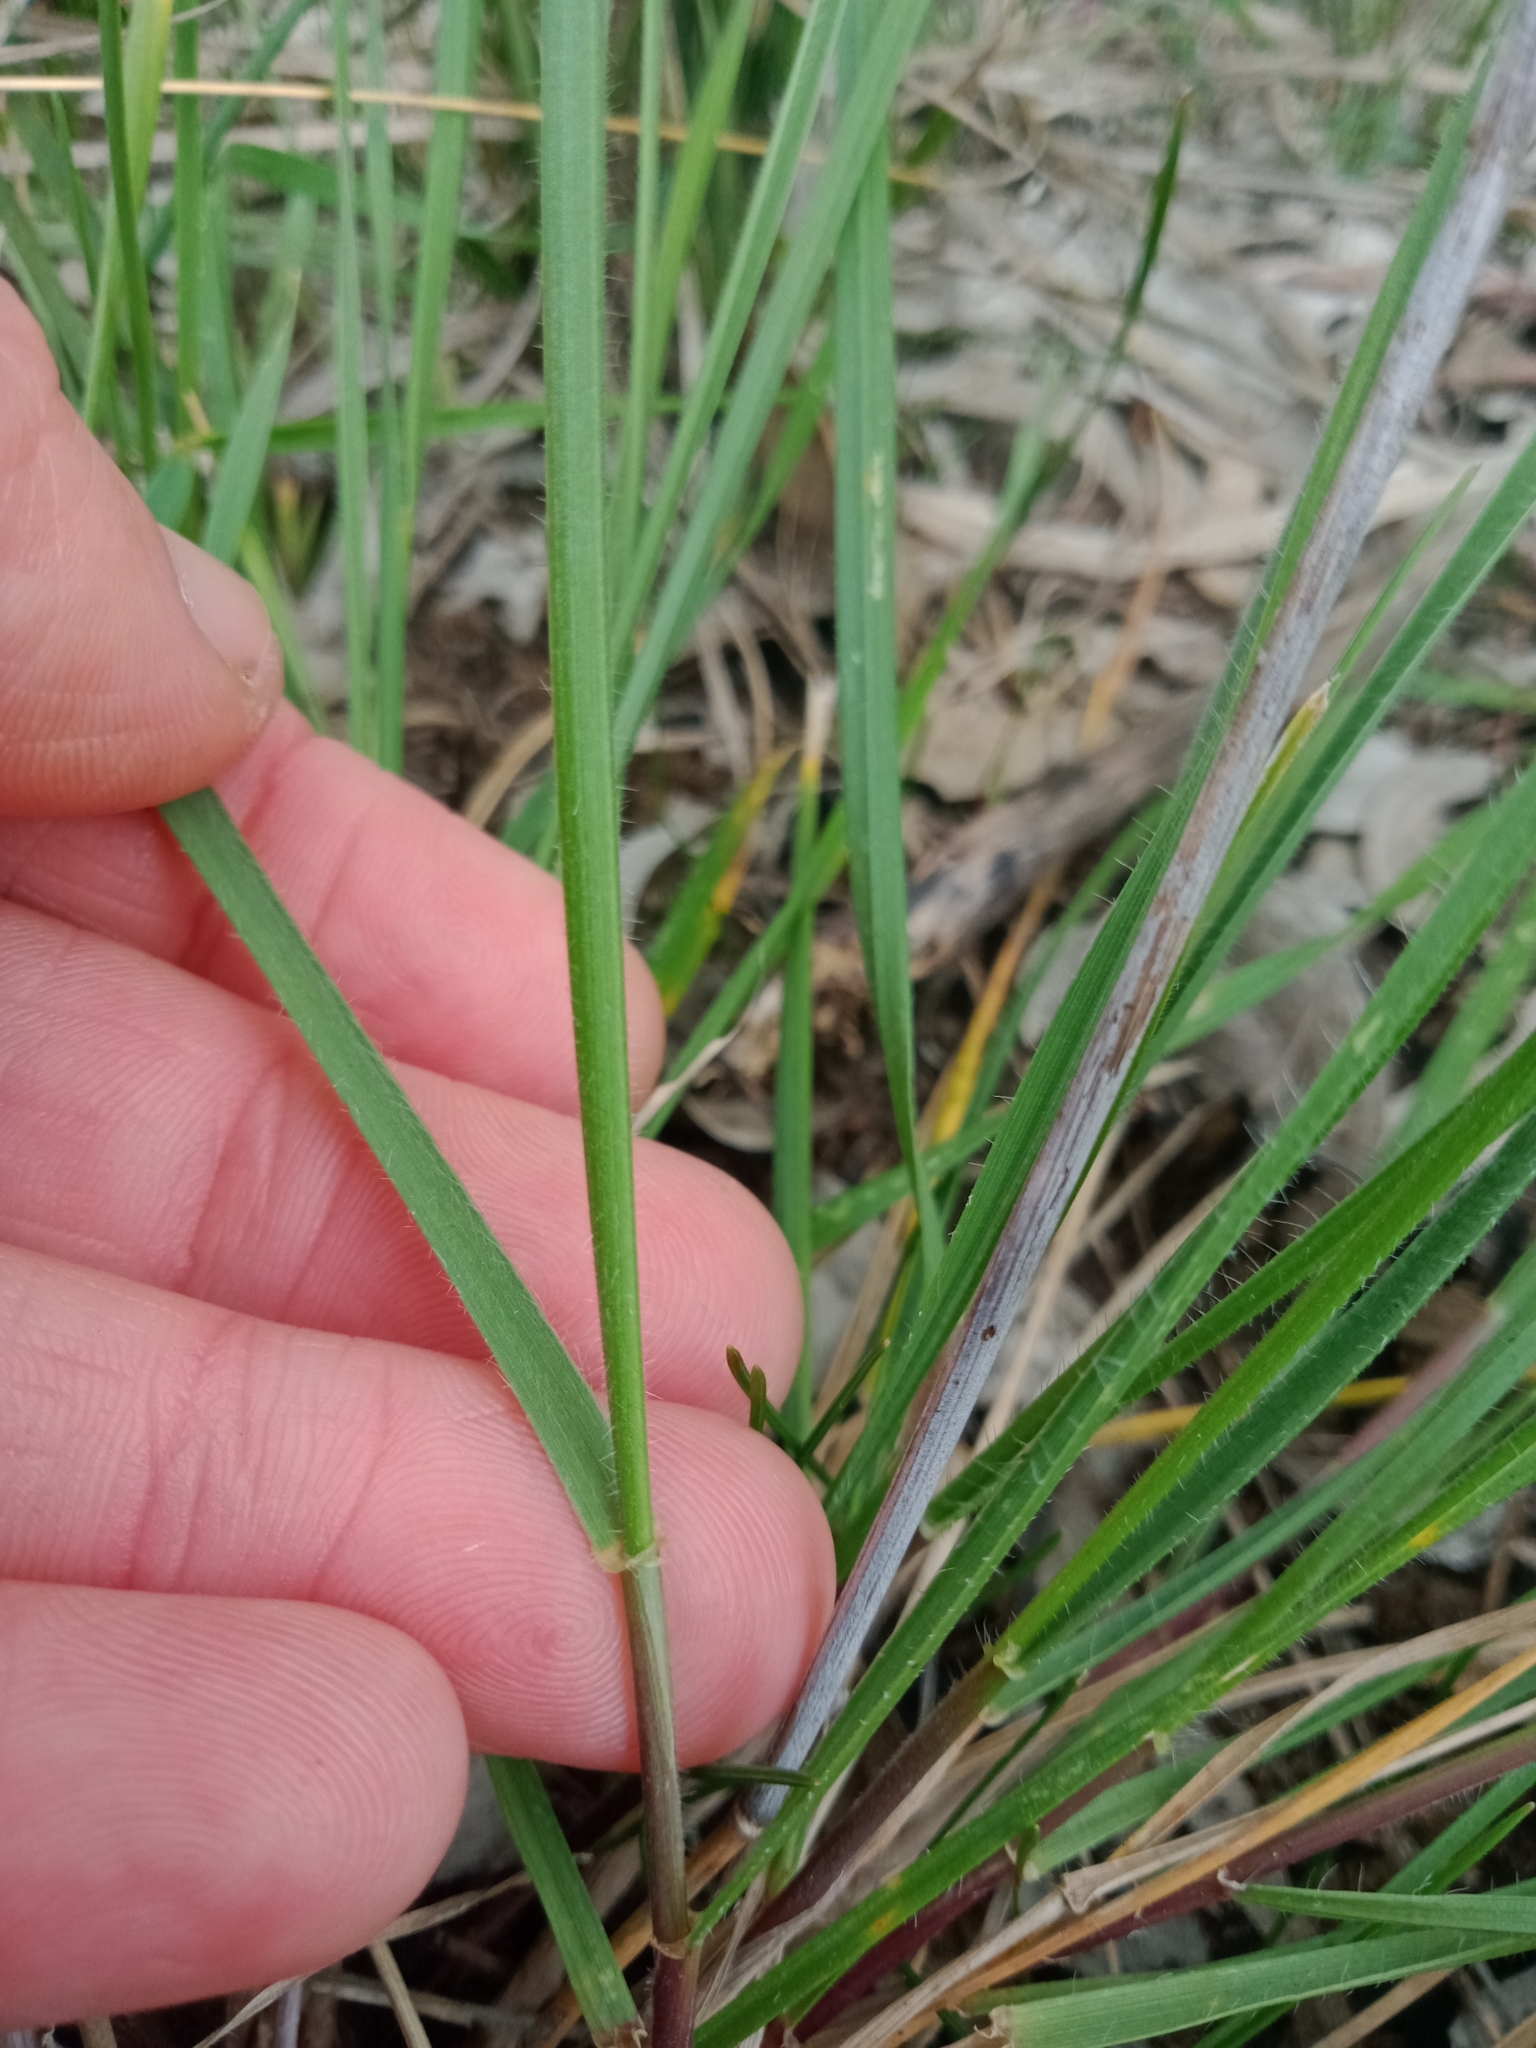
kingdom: Plantae
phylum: Tracheophyta
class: Liliopsida
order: Poales
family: Poaceae
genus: Anthosachne
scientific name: Anthosachne scabra
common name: Common wheatgrass
